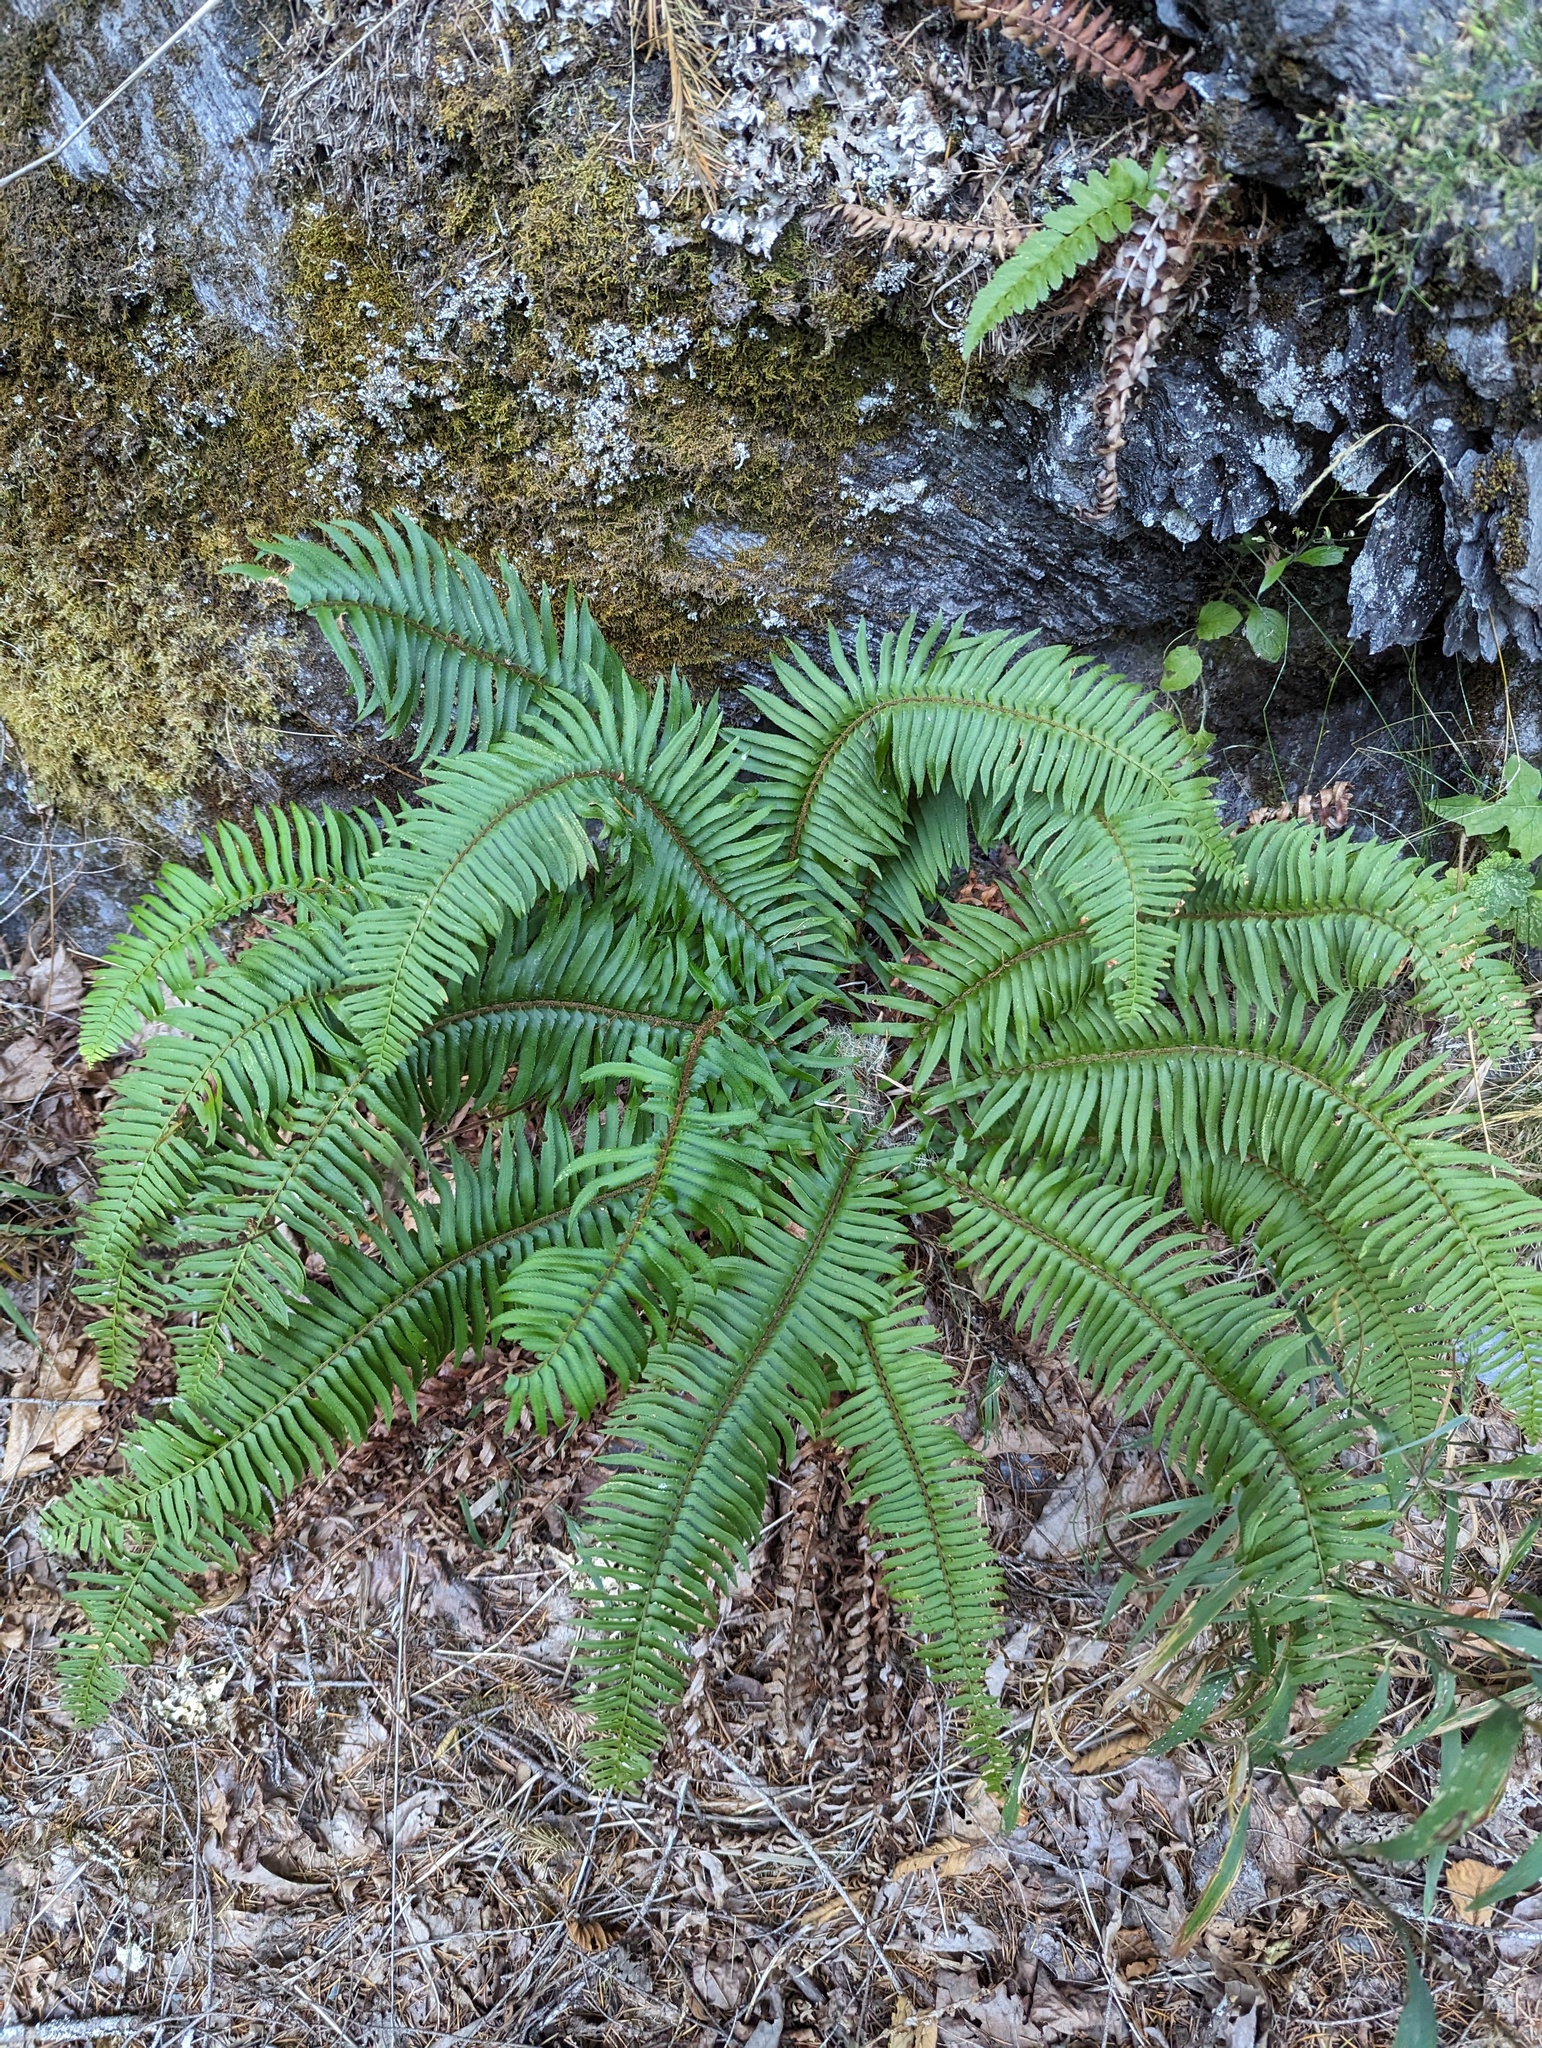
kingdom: Plantae
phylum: Tracheophyta
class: Polypodiopsida
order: Polypodiales
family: Dryopteridaceae
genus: Polystichum
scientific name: Polystichum munitum
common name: Western sword-fern
